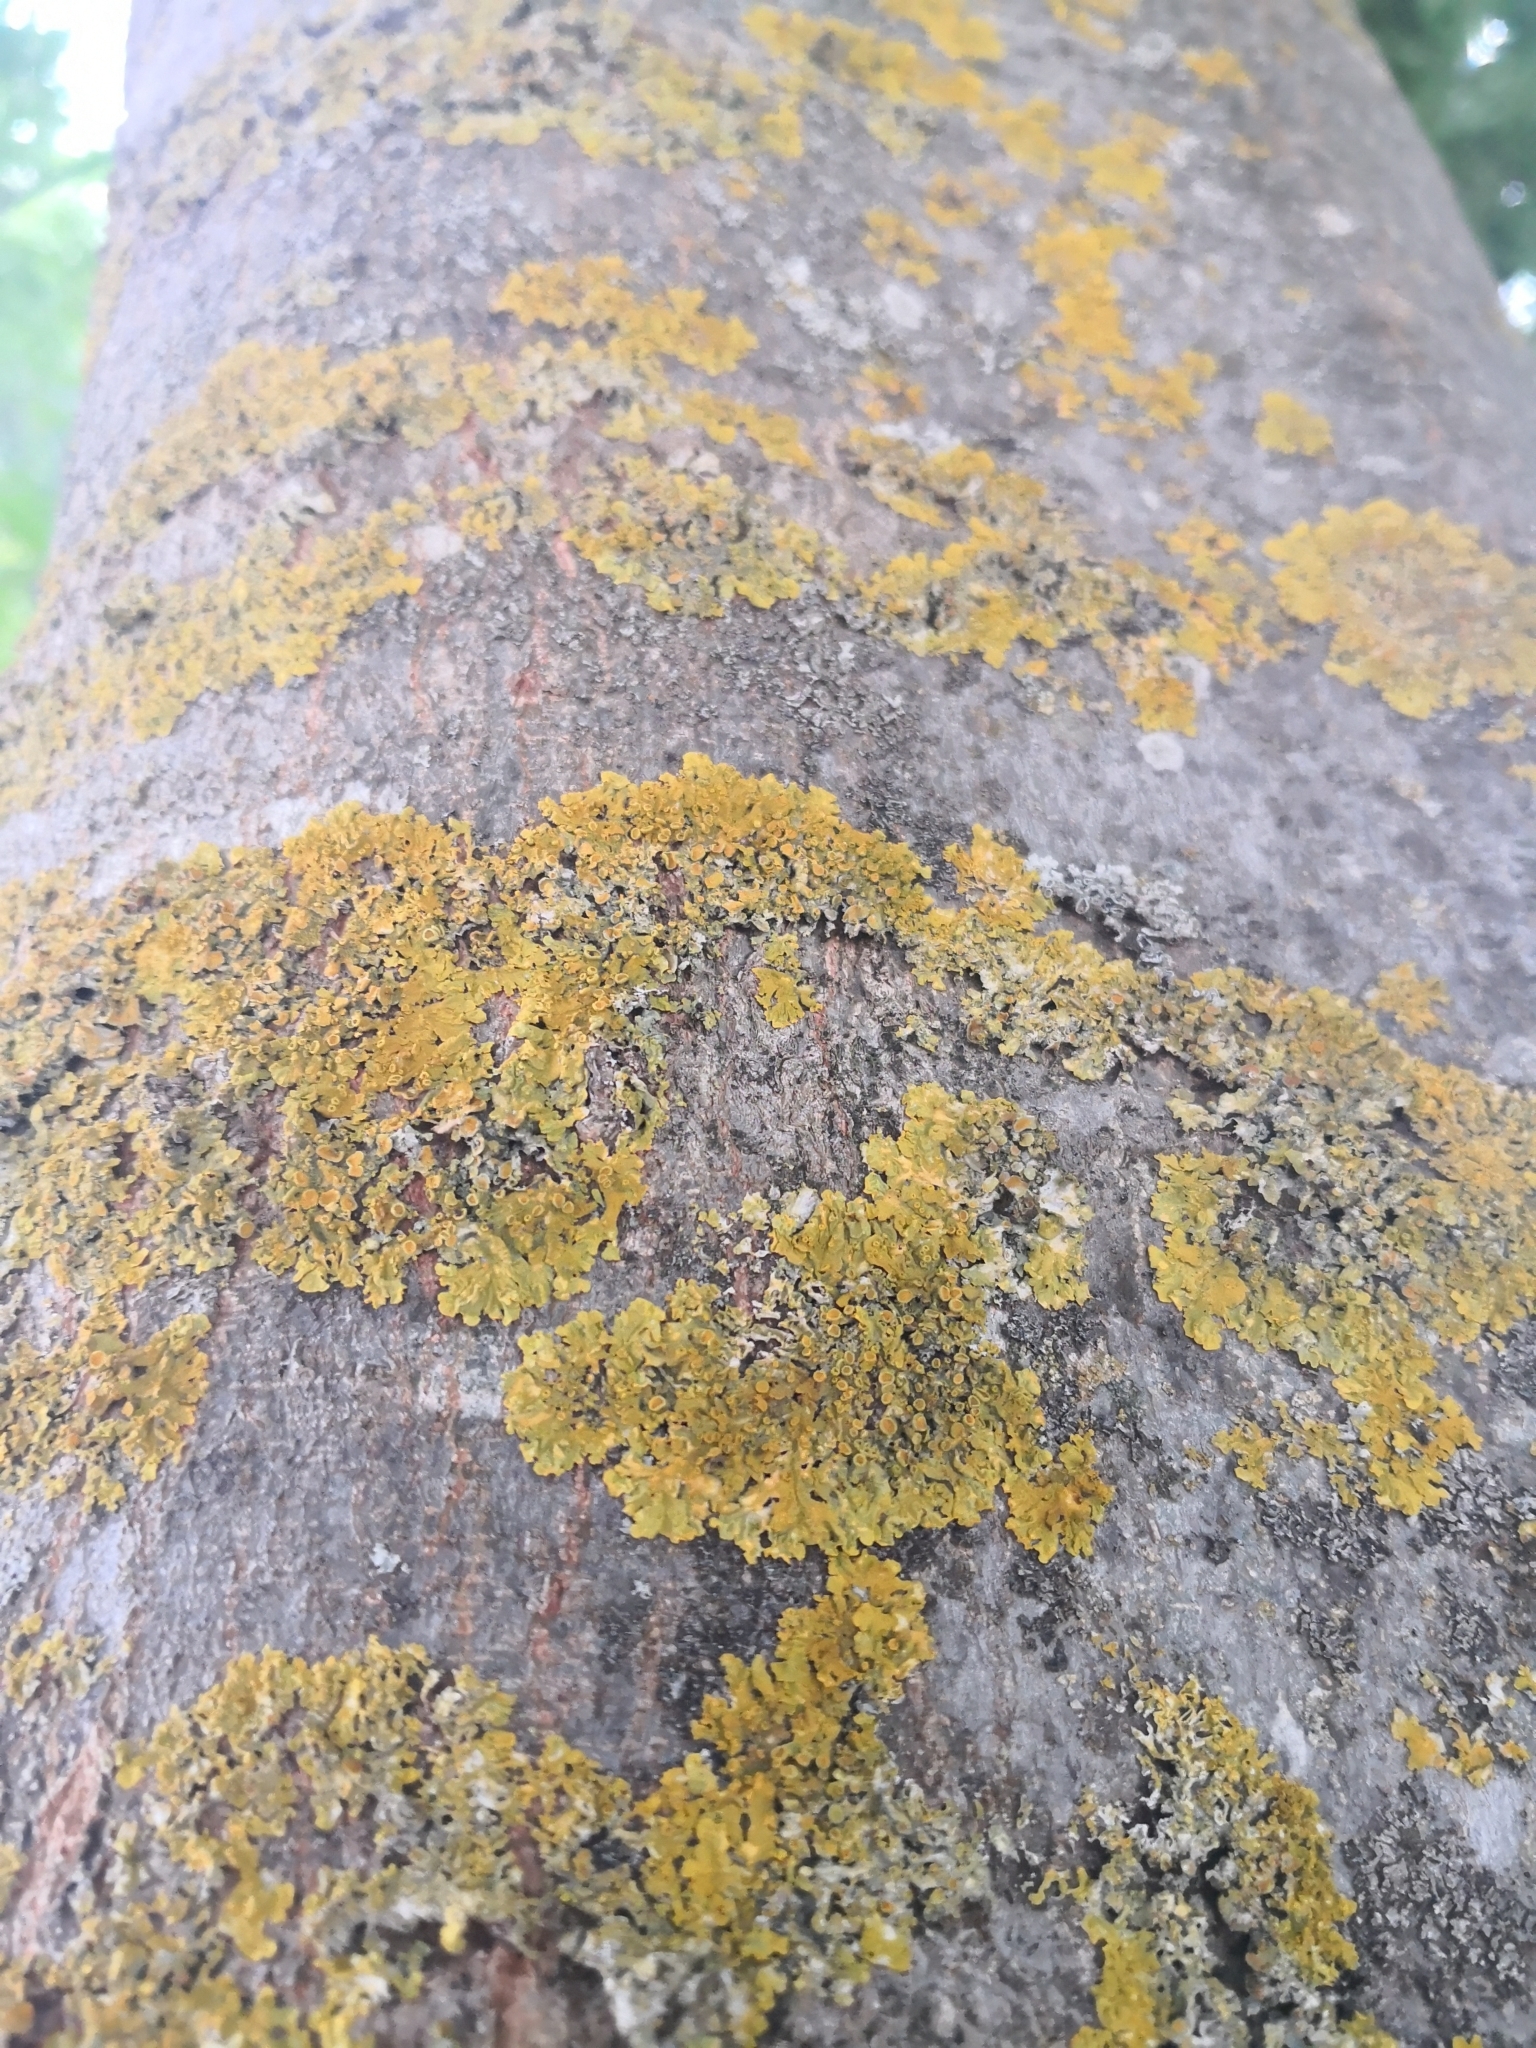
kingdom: Fungi
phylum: Ascomycota
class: Lecanoromycetes
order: Teloschistales
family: Teloschistaceae
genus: Xanthoria
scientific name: Xanthoria parietina
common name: Common orange lichen
